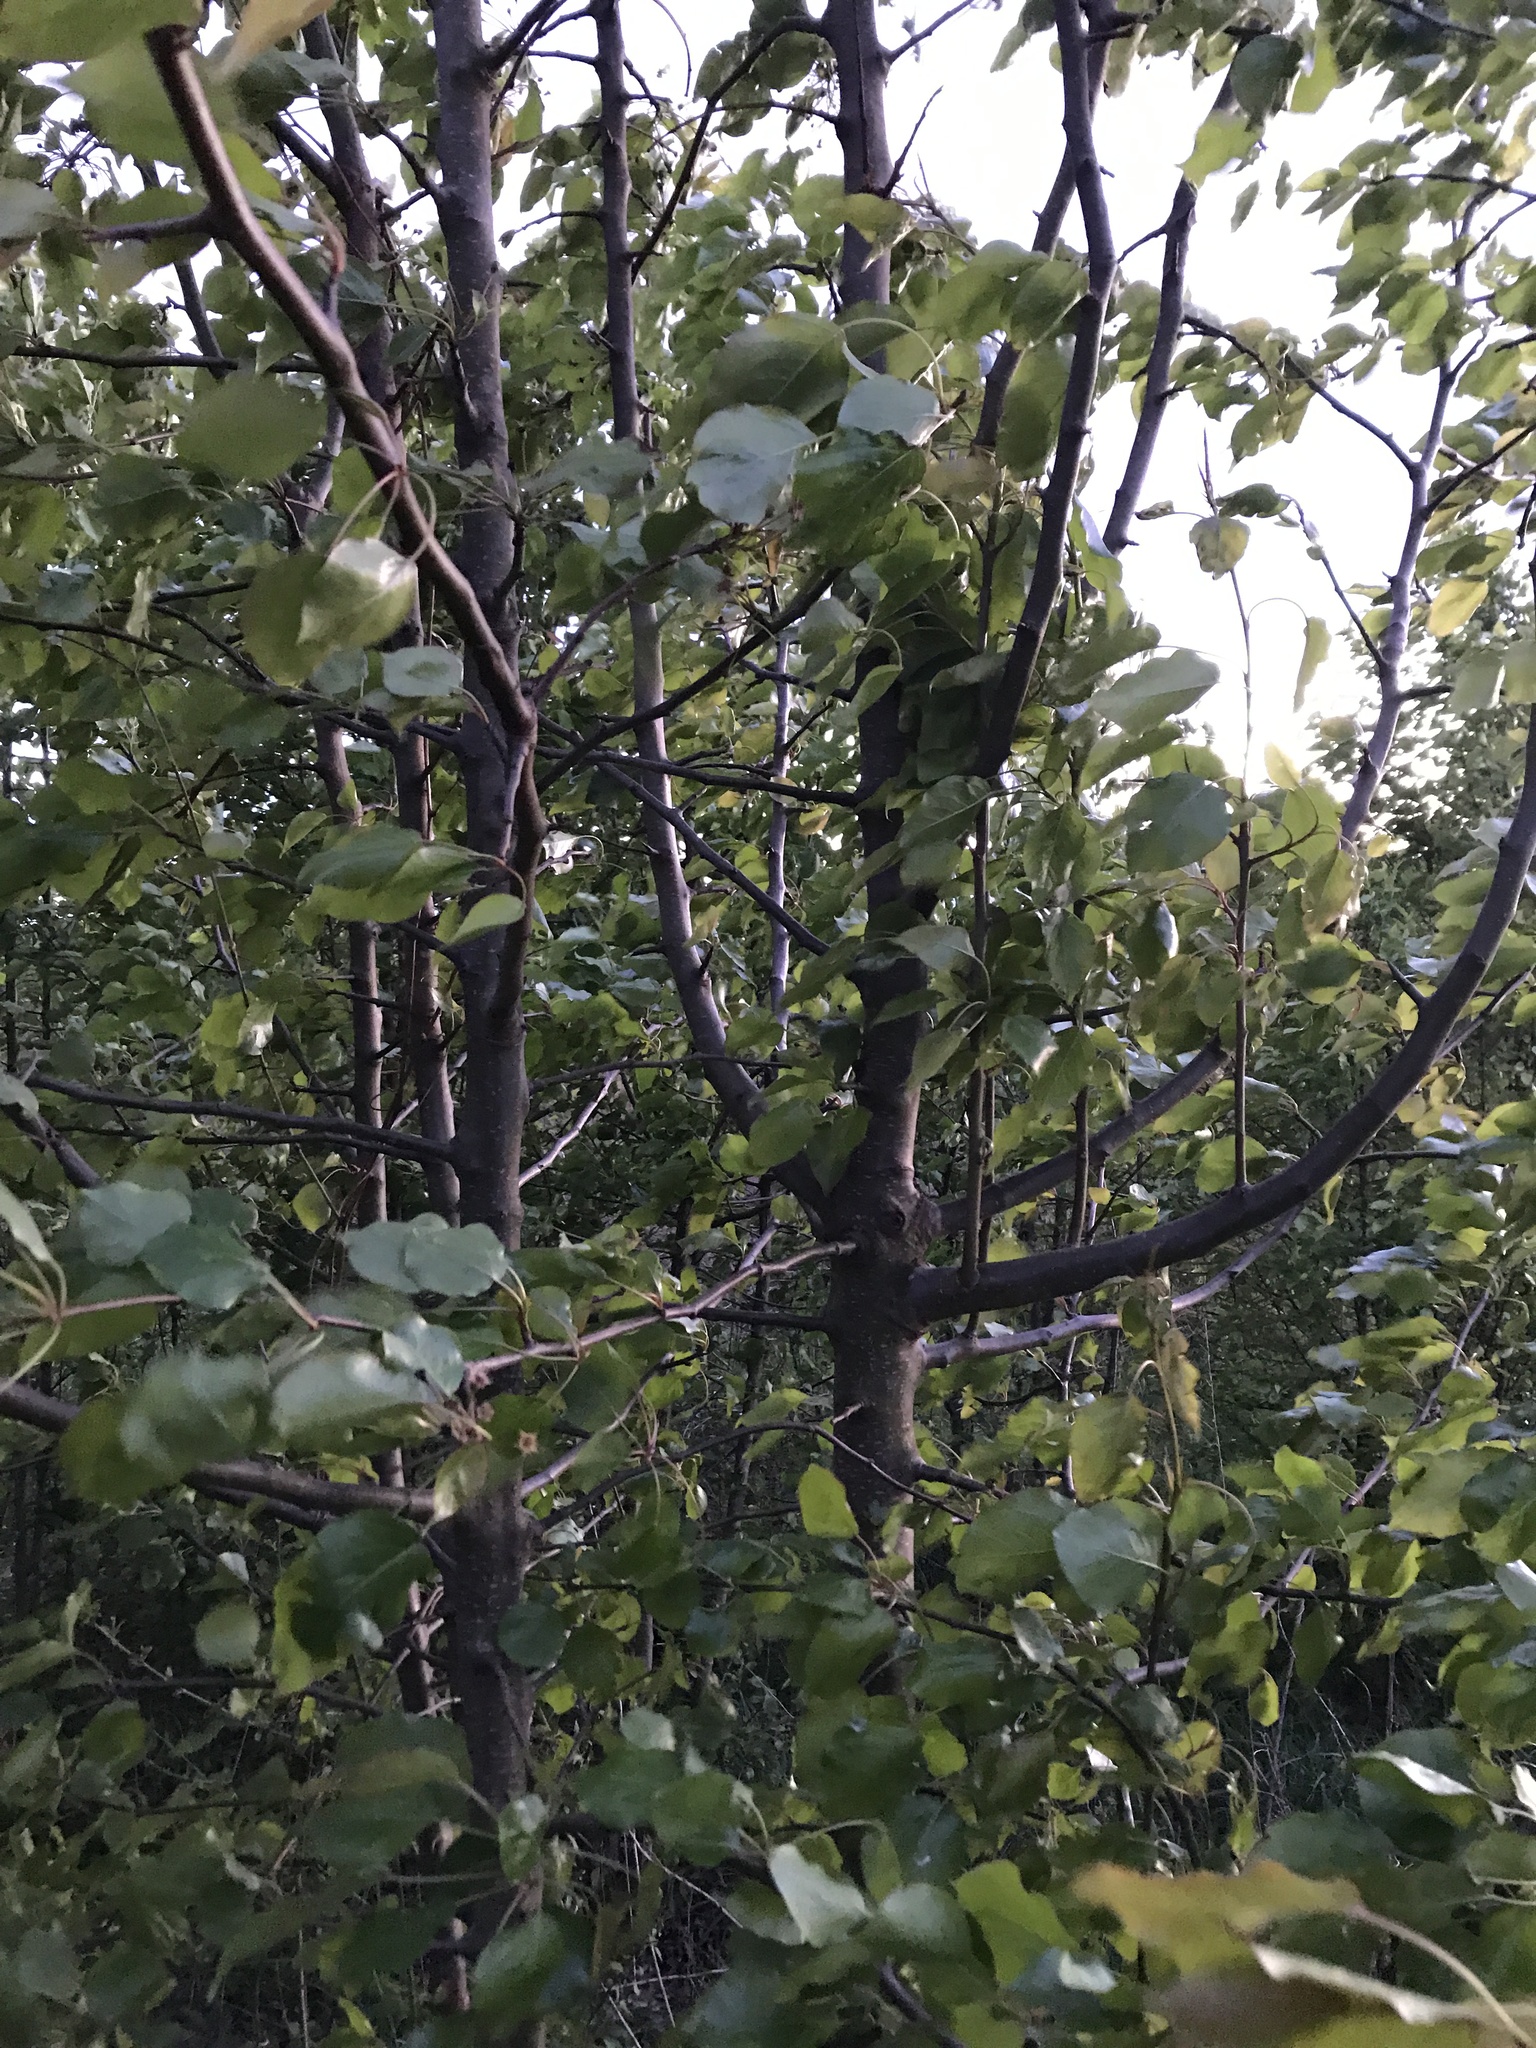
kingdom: Plantae
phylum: Tracheophyta
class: Magnoliopsida
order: Rosales
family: Rosaceae
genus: Pyrus
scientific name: Pyrus calleryana
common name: Callery pear
